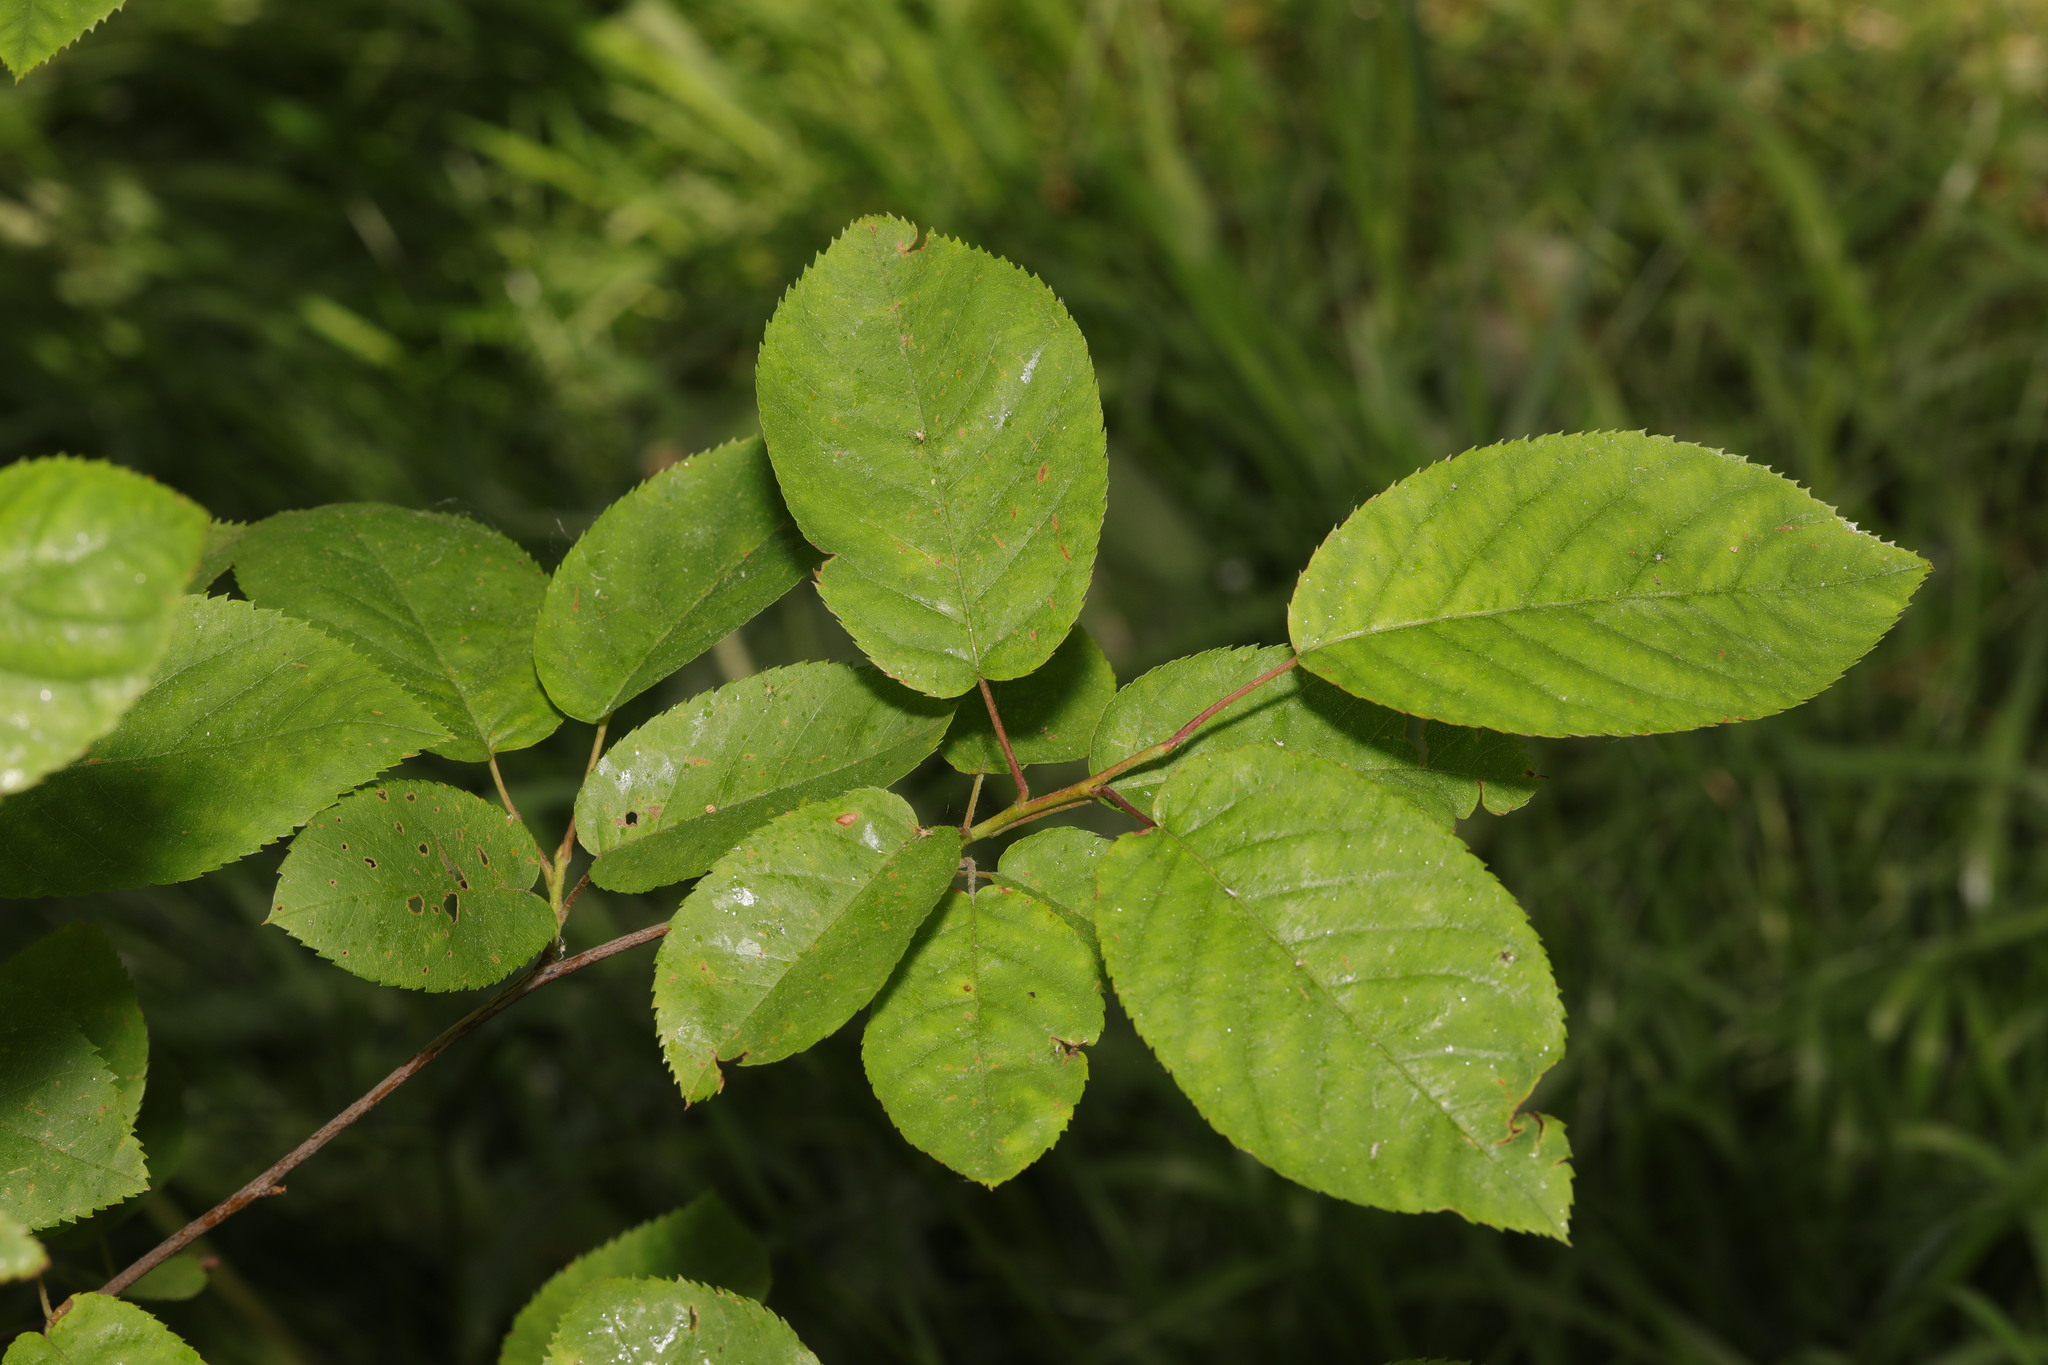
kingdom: Plantae
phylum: Tracheophyta
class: Magnoliopsida
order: Rosales
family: Rosaceae
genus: Prunus
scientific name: Prunus padus
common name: Bird cherry
